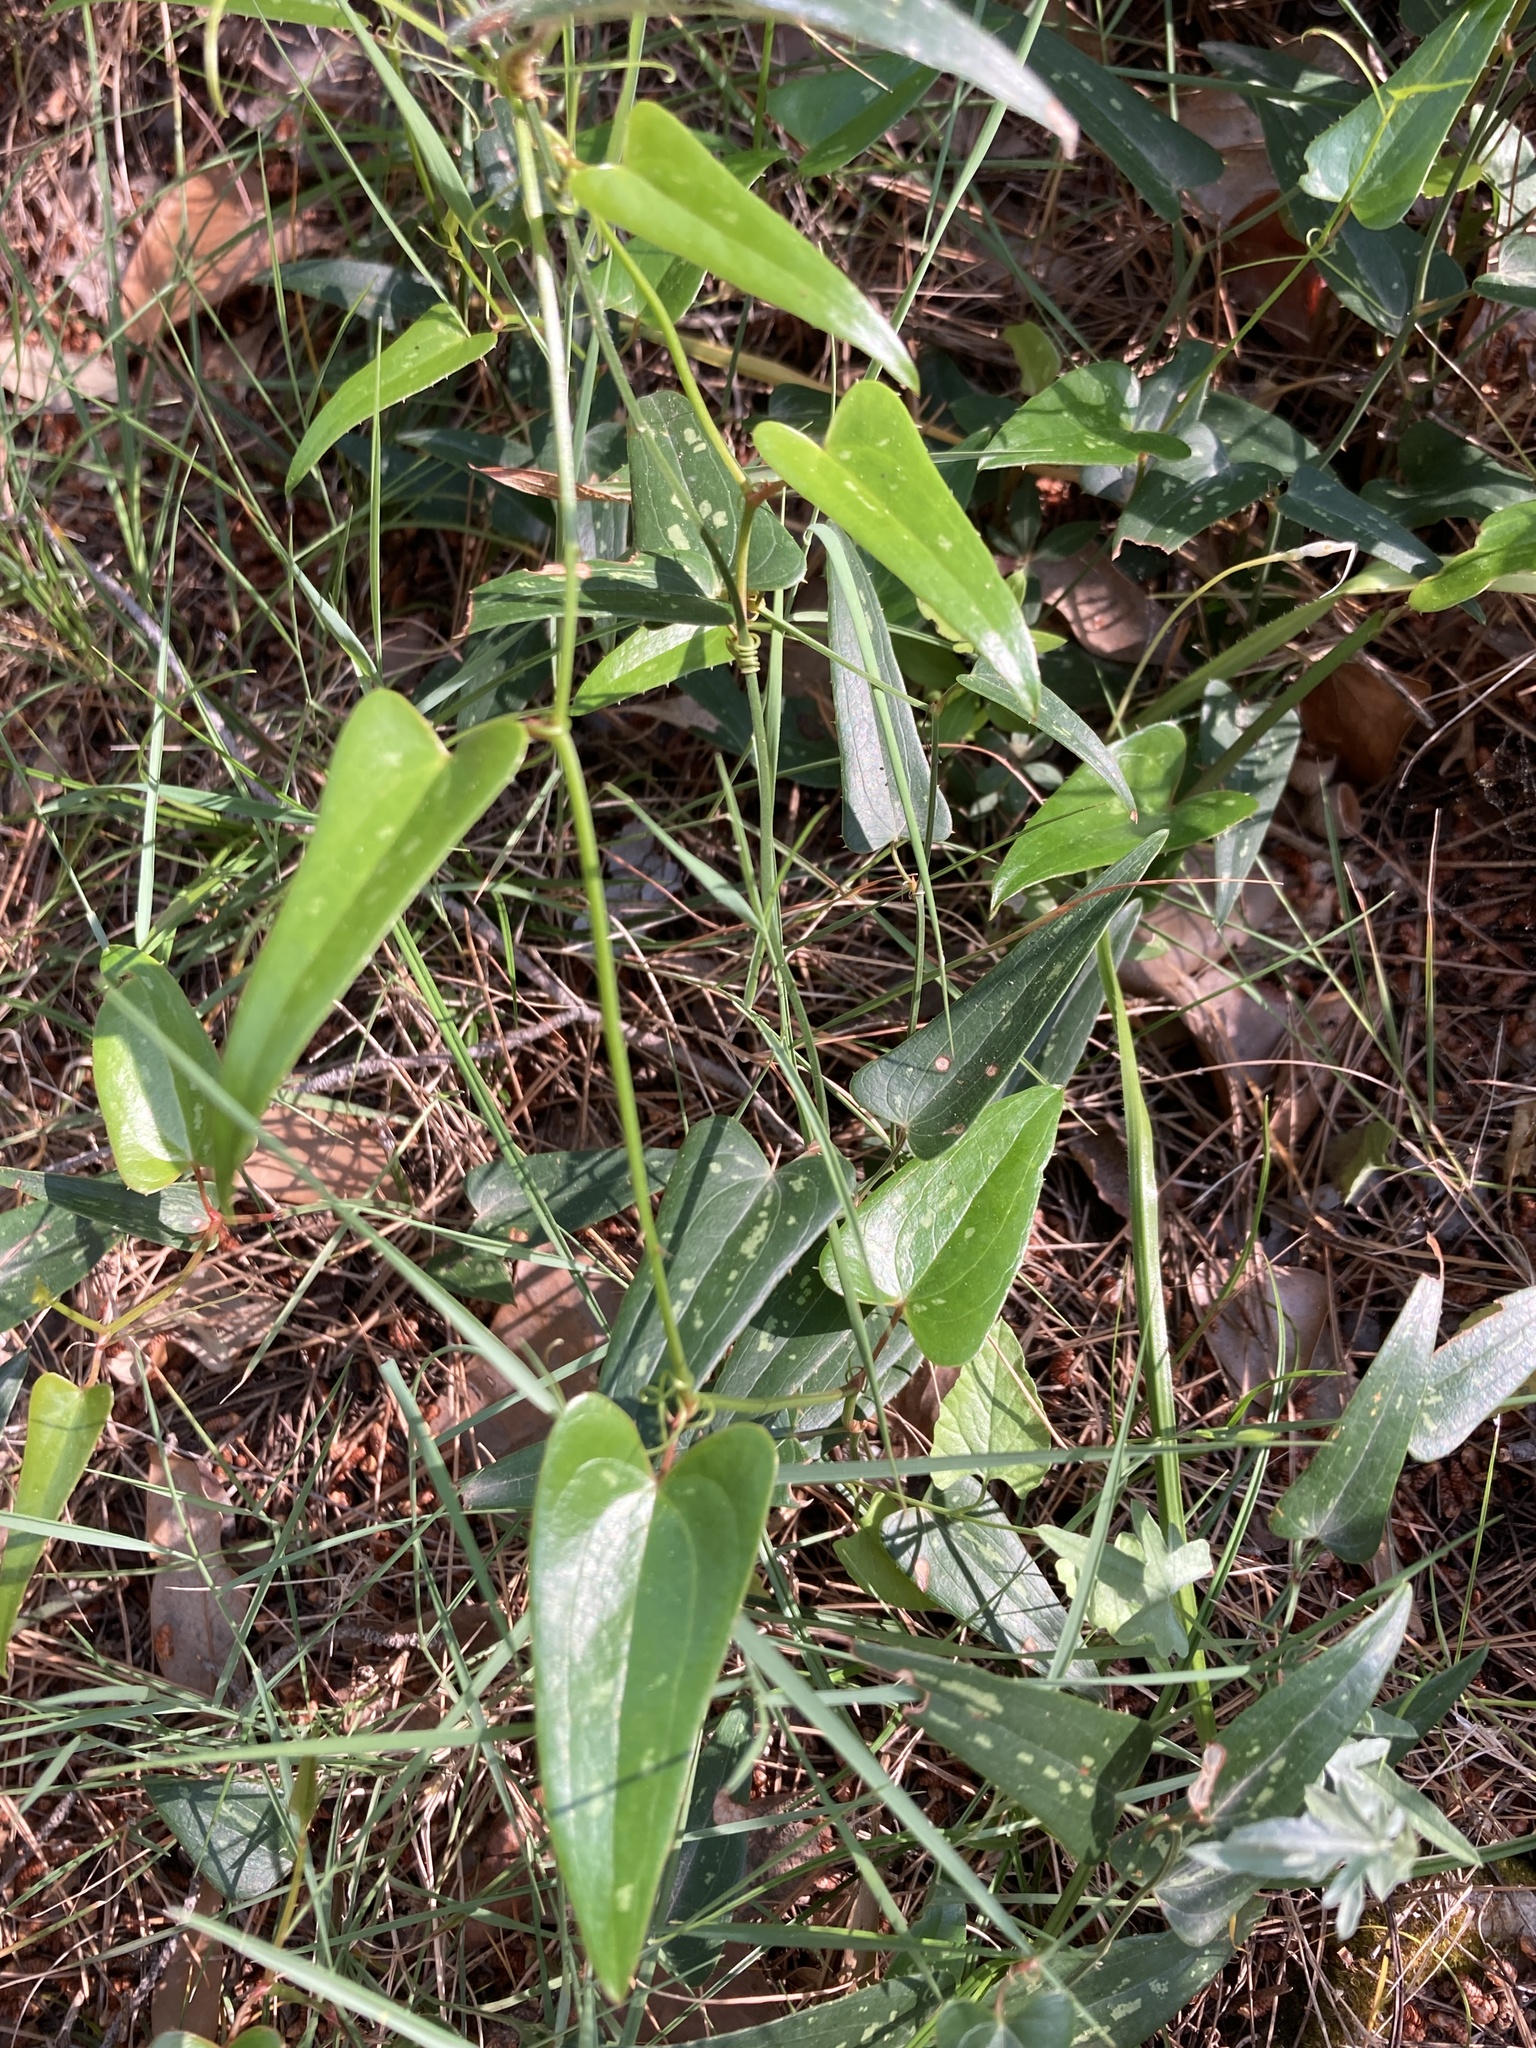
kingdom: Plantae
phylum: Tracheophyta
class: Liliopsida
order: Liliales
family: Smilacaceae
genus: Smilax
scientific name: Smilax aspera
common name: Common smilax
